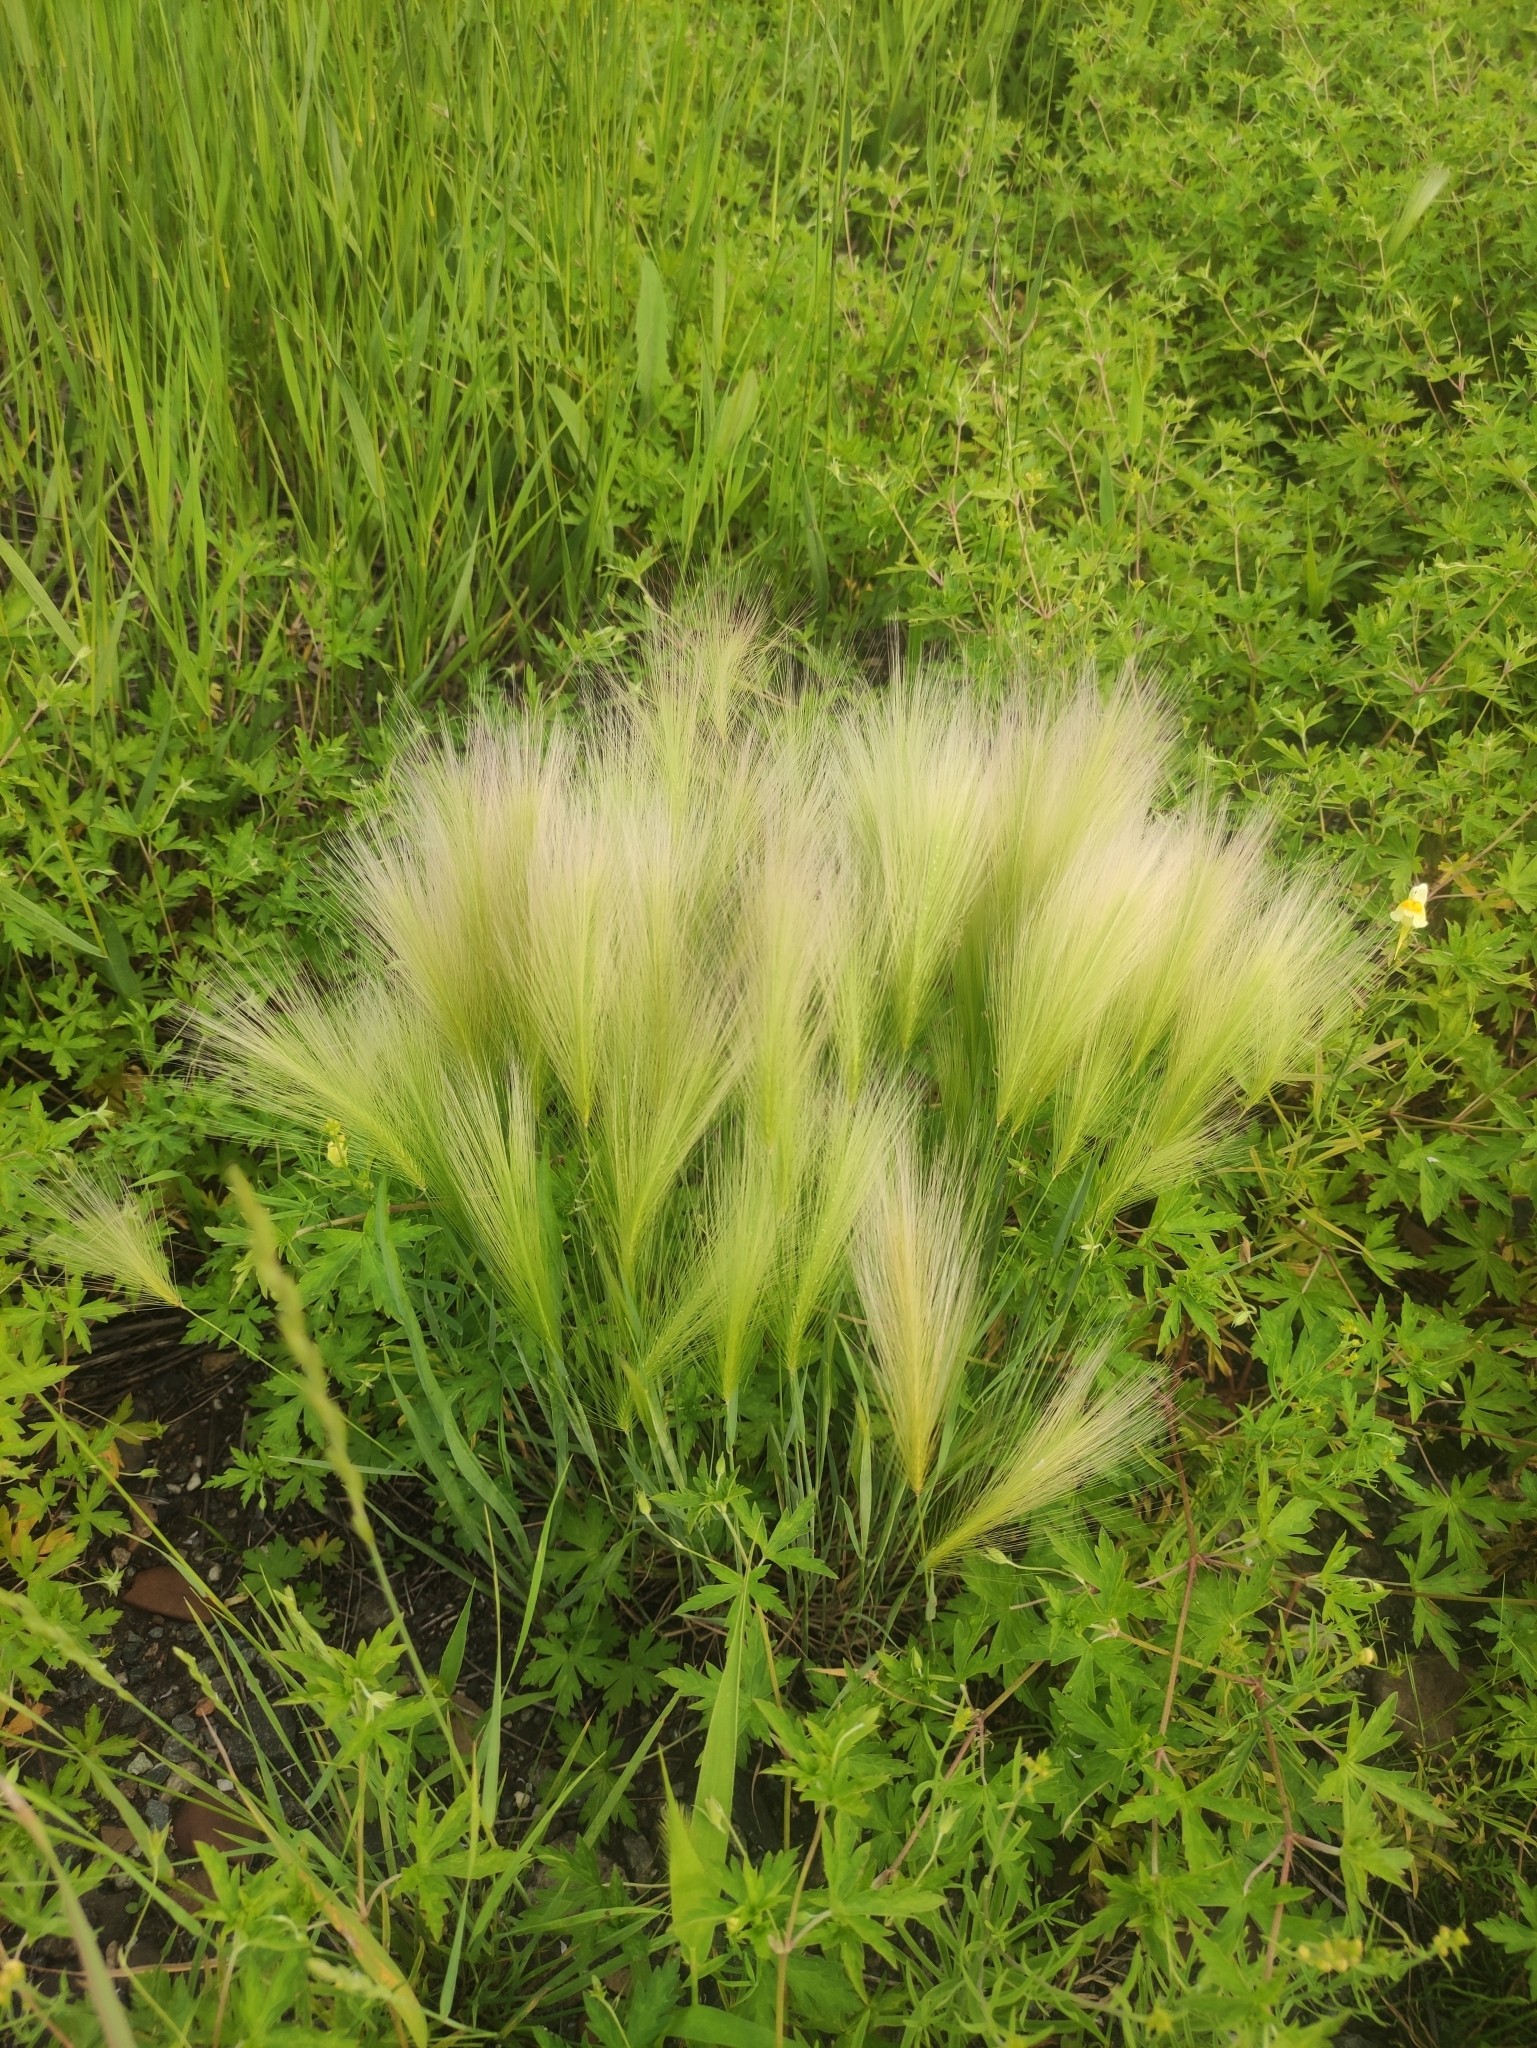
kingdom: Plantae
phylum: Tracheophyta
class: Liliopsida
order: Poales
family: Poaceae
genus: Hordeum
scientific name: Hordeum jubatum
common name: Foxtail barley
